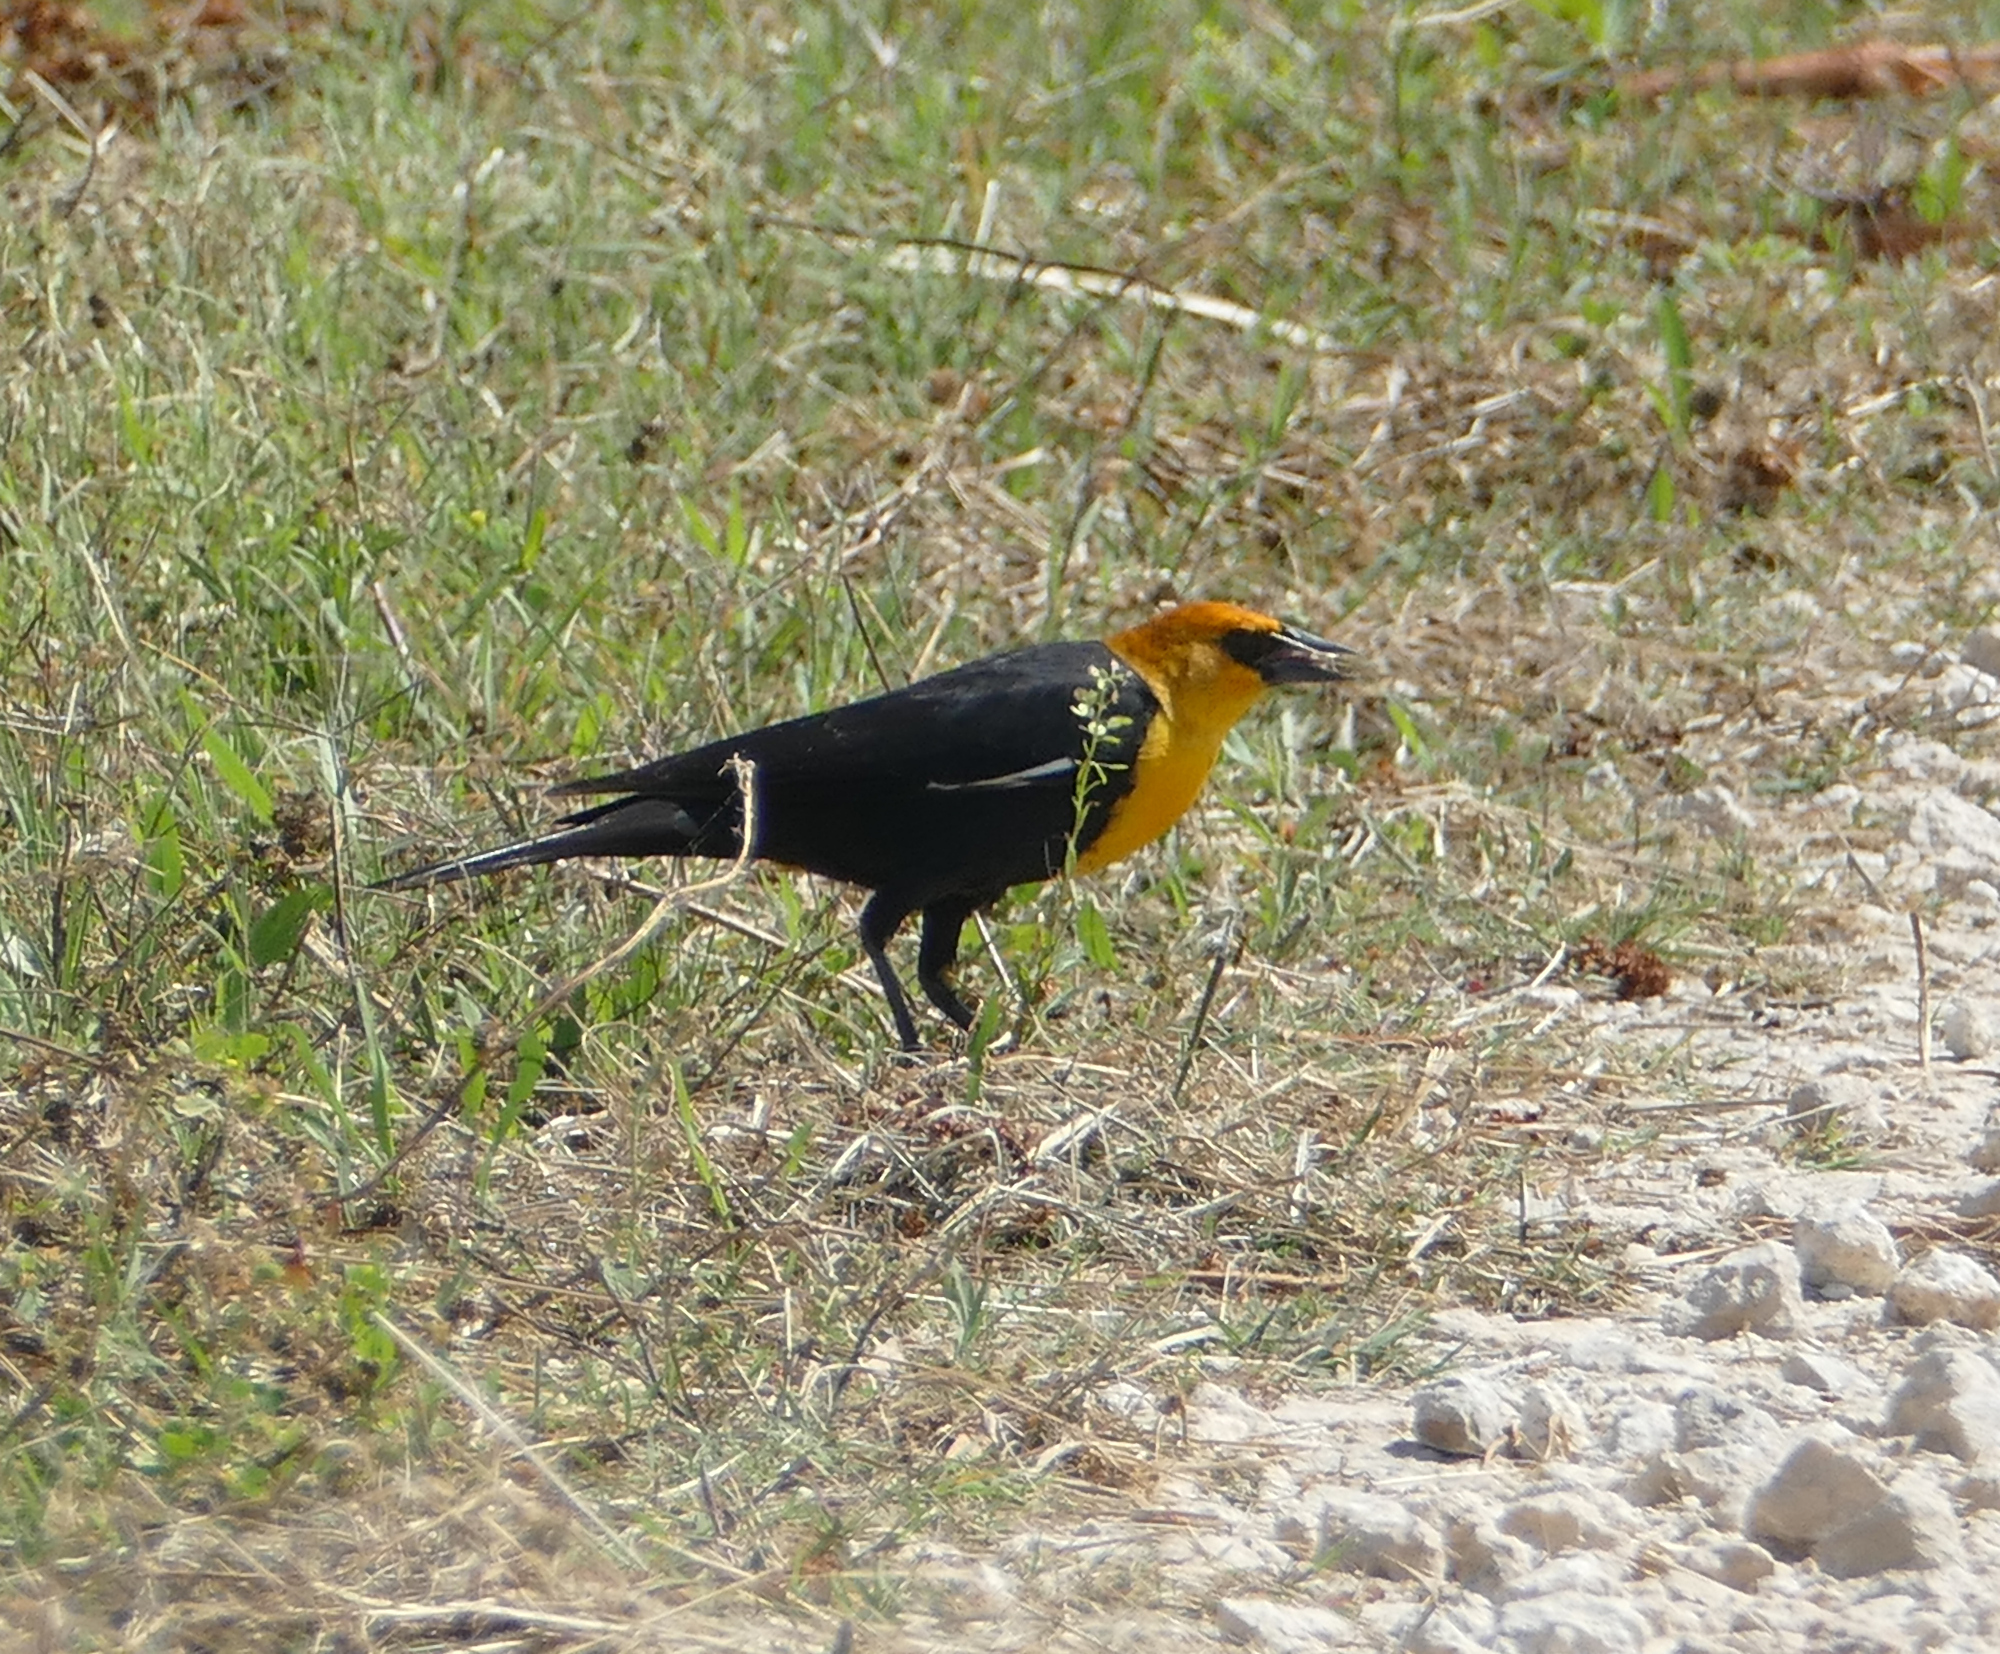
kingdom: Animalia
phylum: Chordata
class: Aves
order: Passeriformes
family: Icteridae
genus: Xanthocephalus
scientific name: Xanthocephalus xanthocephalus
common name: Yellow-headed blackbird
